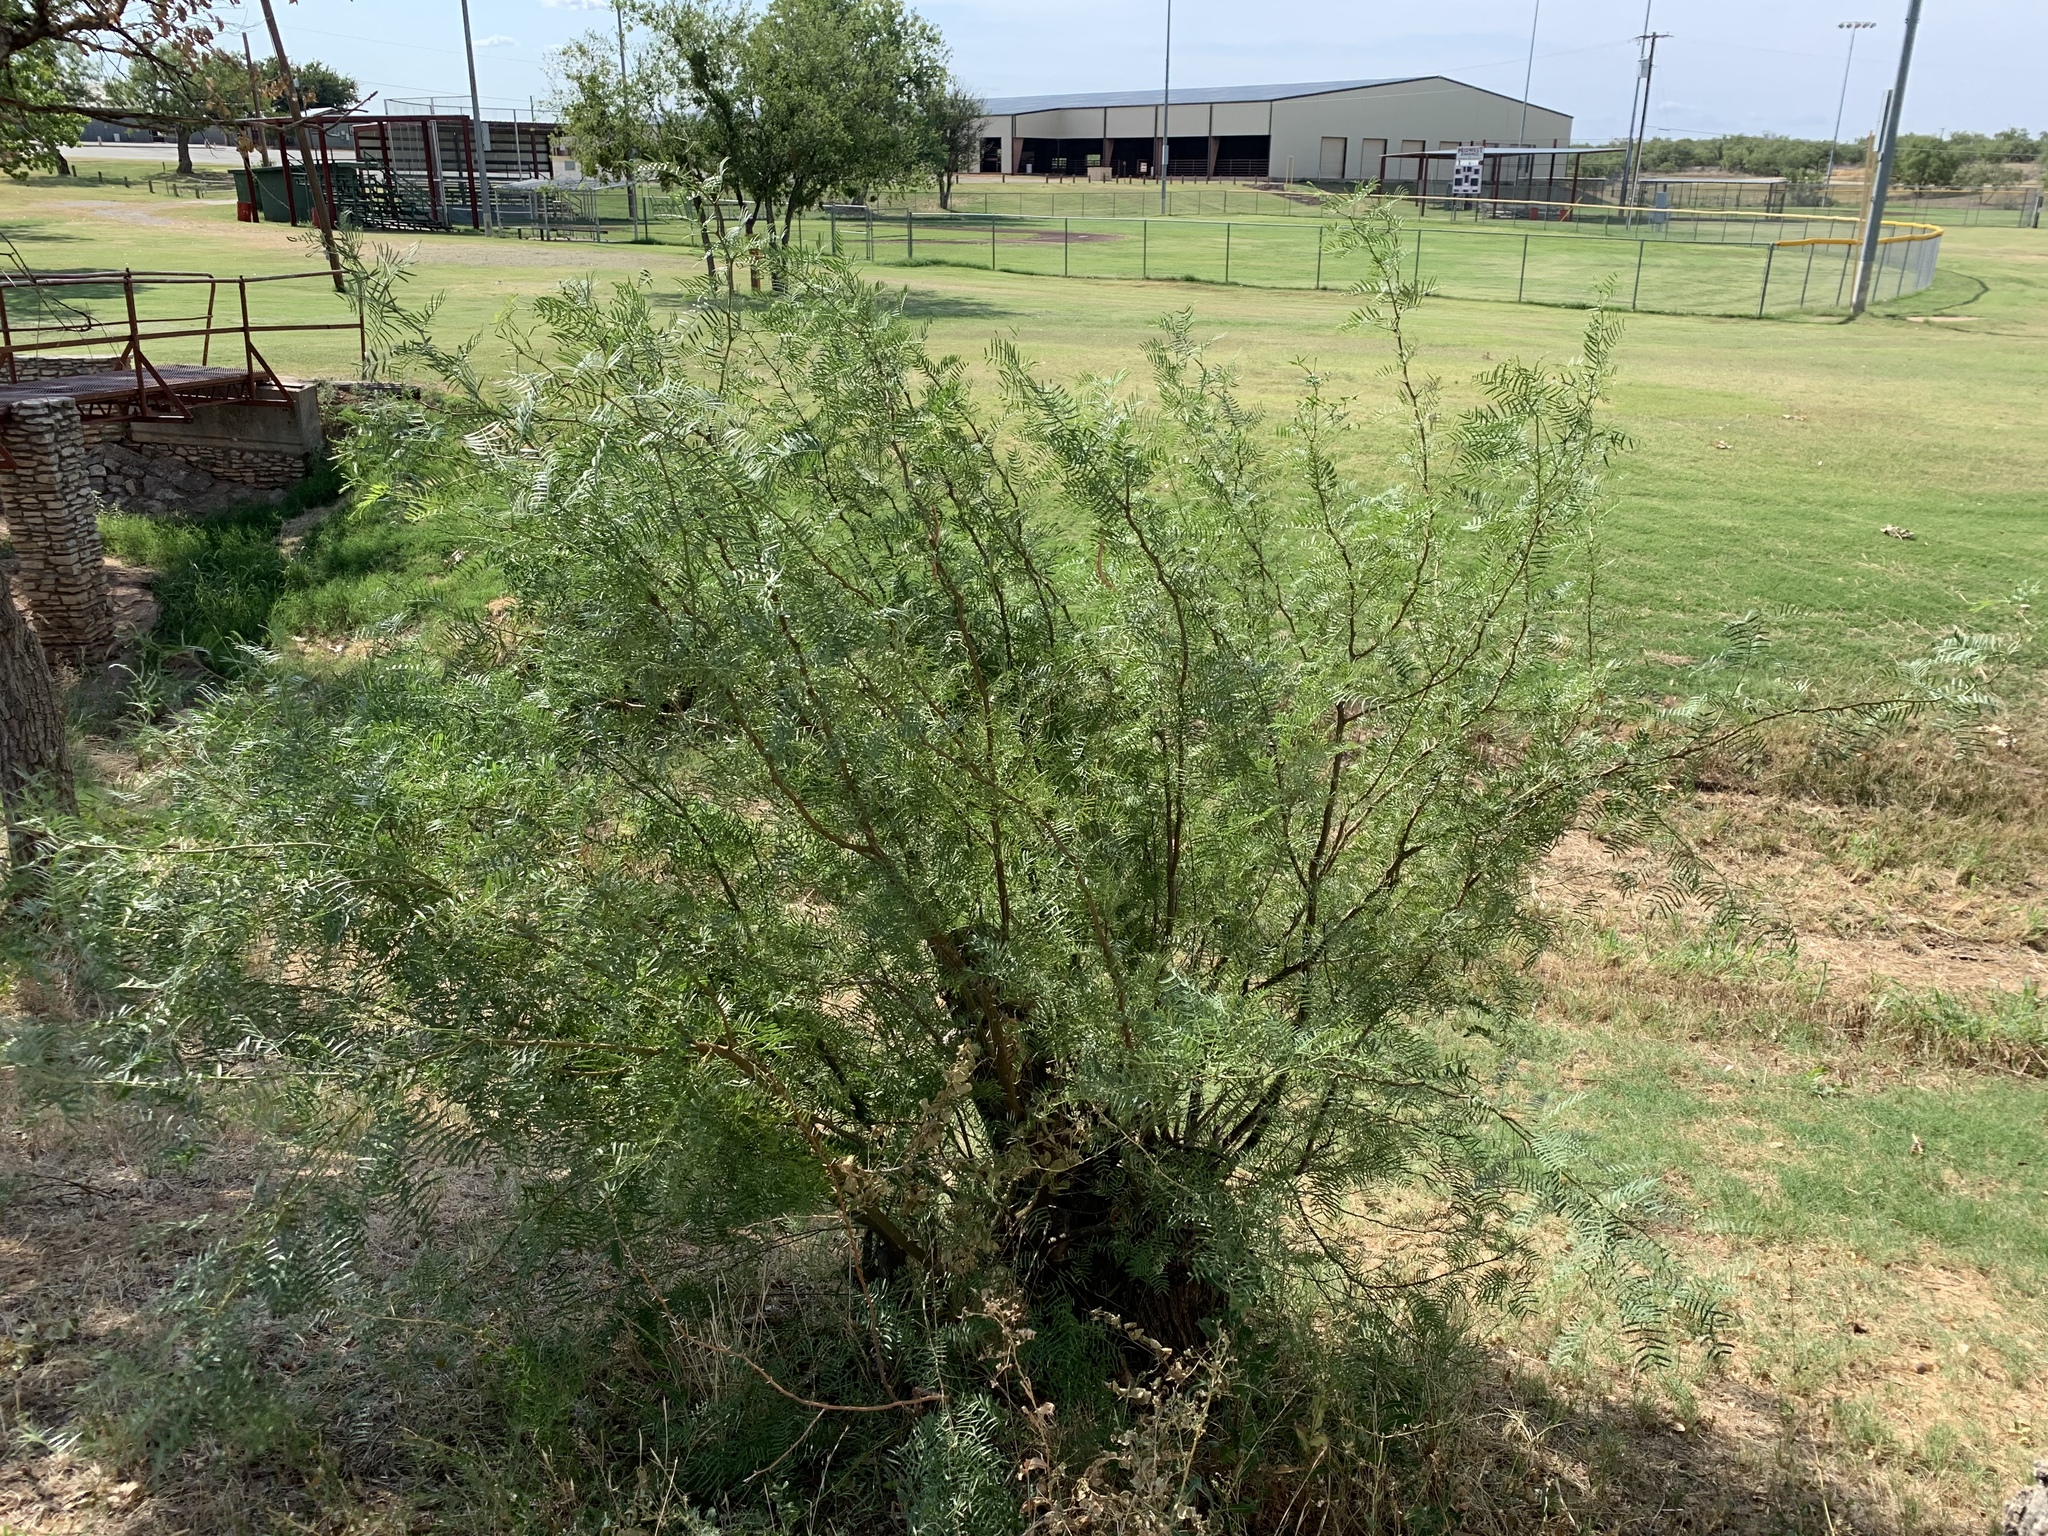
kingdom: Plantae
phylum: Tracheophyta
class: Magnoliopsida
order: Fabales
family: Fabaceae
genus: Prosopis
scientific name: Prosopis glandulosa
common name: Honey mesquite
